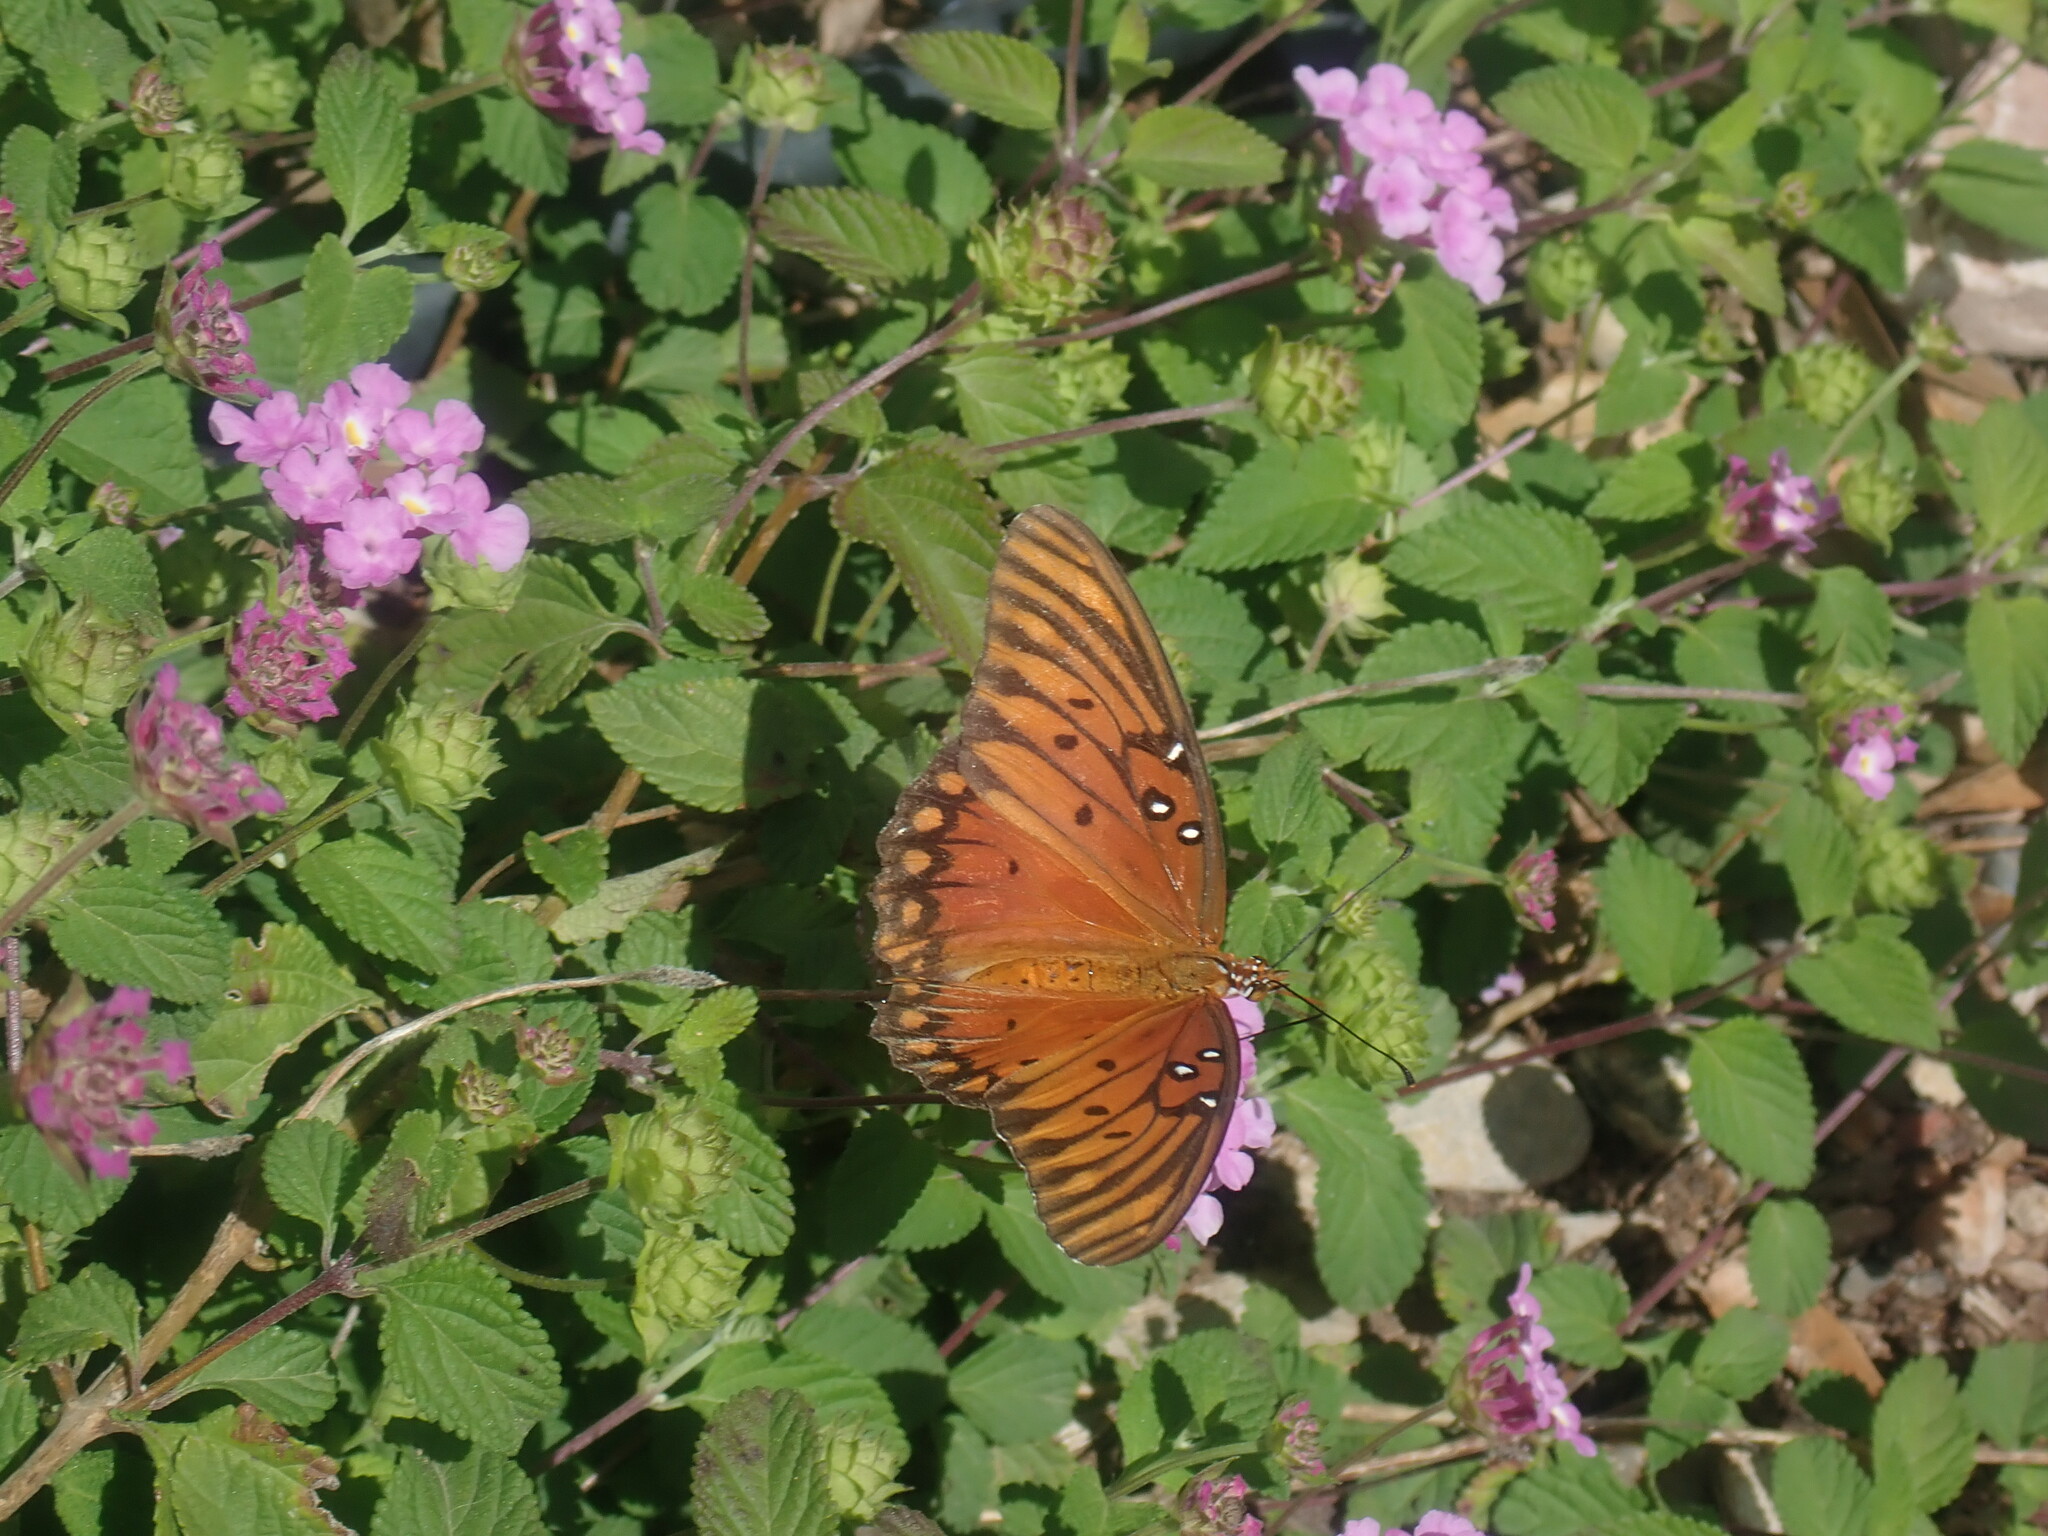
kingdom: Animalia
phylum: Arthropoda
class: Insecta
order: Lepidoptera
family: Nymphalidae
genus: Dione
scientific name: Dione vanillae
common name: Gulf fritillary
